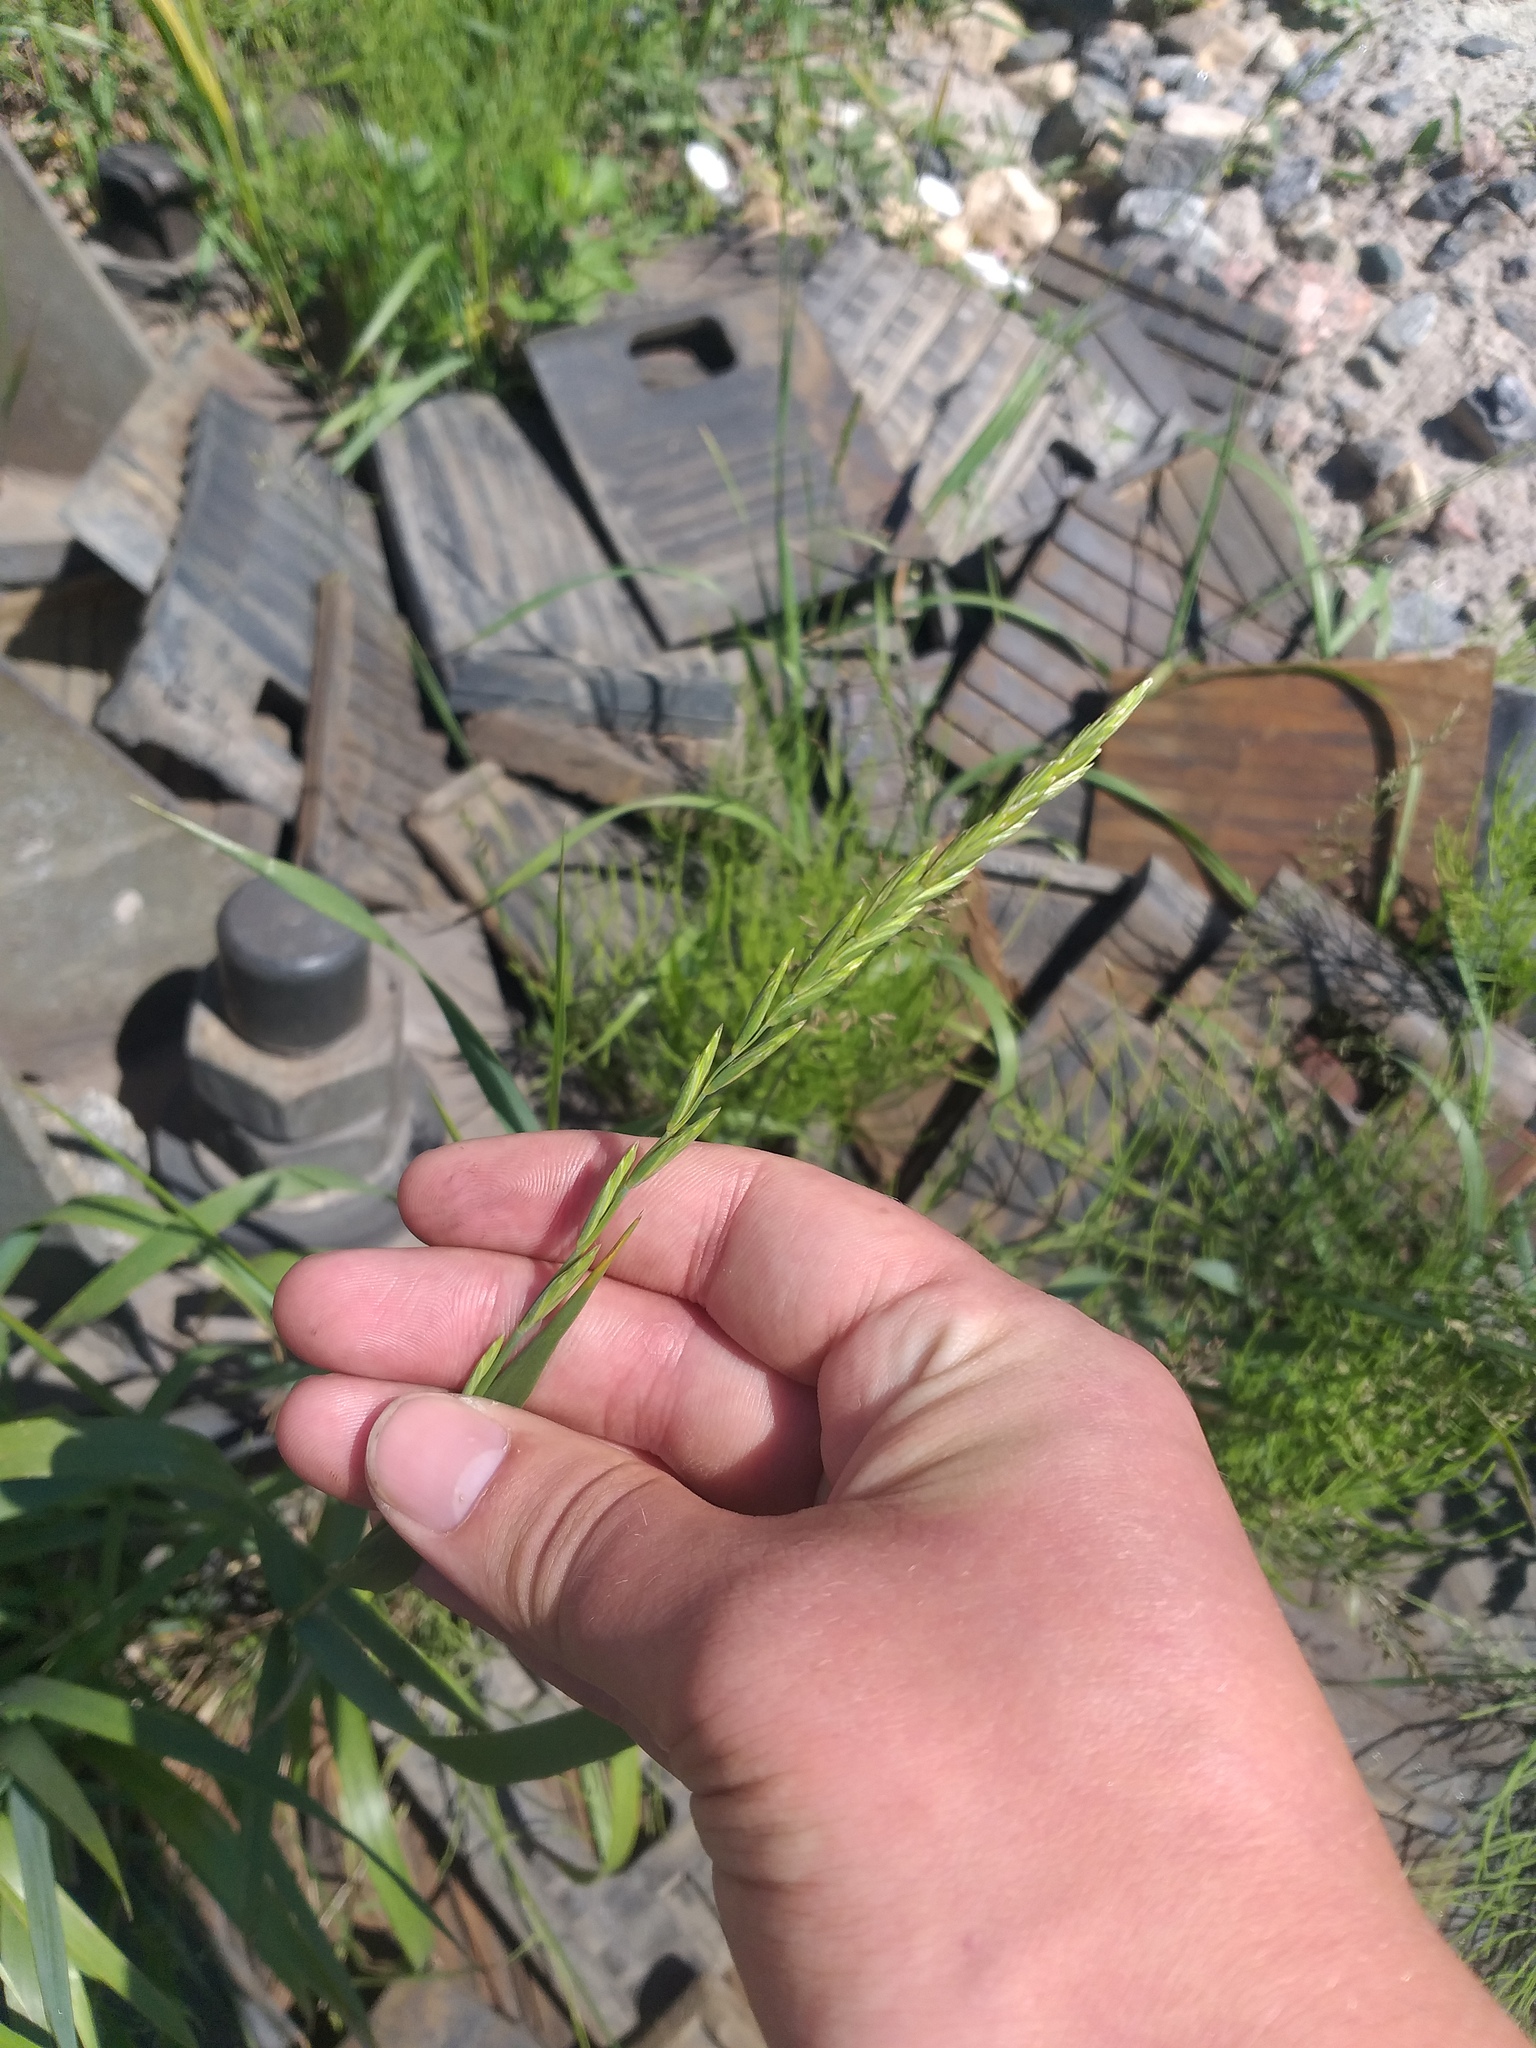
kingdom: Plantae
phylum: Tracheophyta
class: Liliopsida
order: Poales
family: Poaceae
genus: Elymus
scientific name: Elymus repens
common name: Quackgrass
